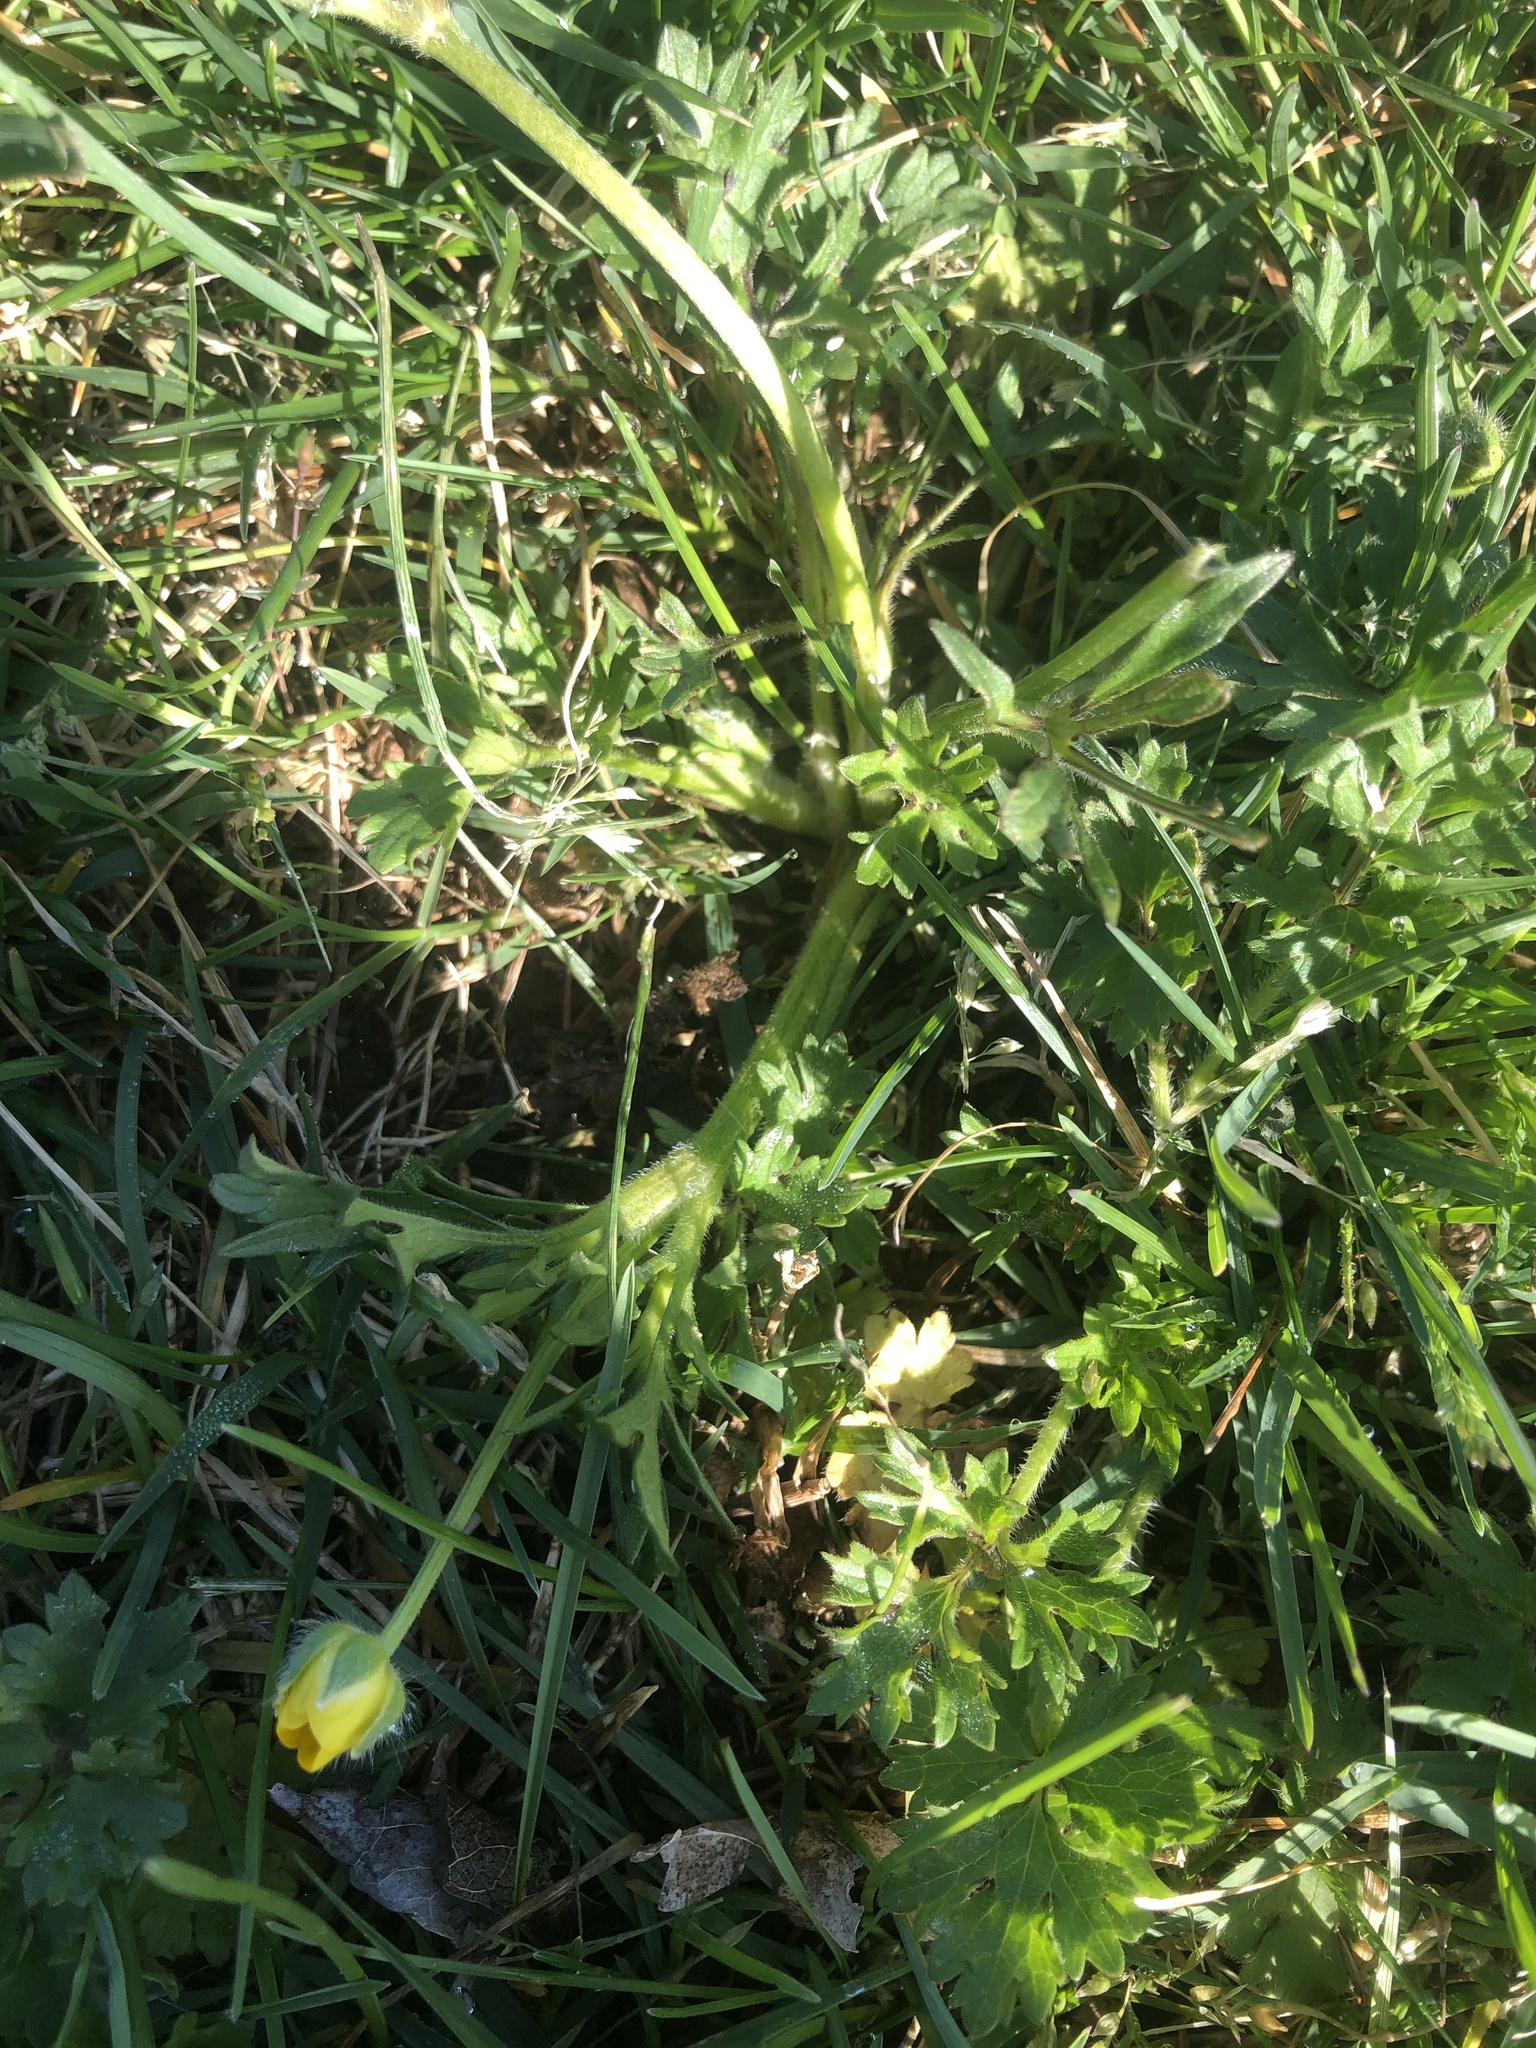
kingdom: Plantae
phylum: Tracheophyta
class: Magnoliopsida
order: Ranunculales
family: Ranunculaceae
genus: Ranunculus
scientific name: Ranunculus bulbosus
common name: Bulbous buttercup
